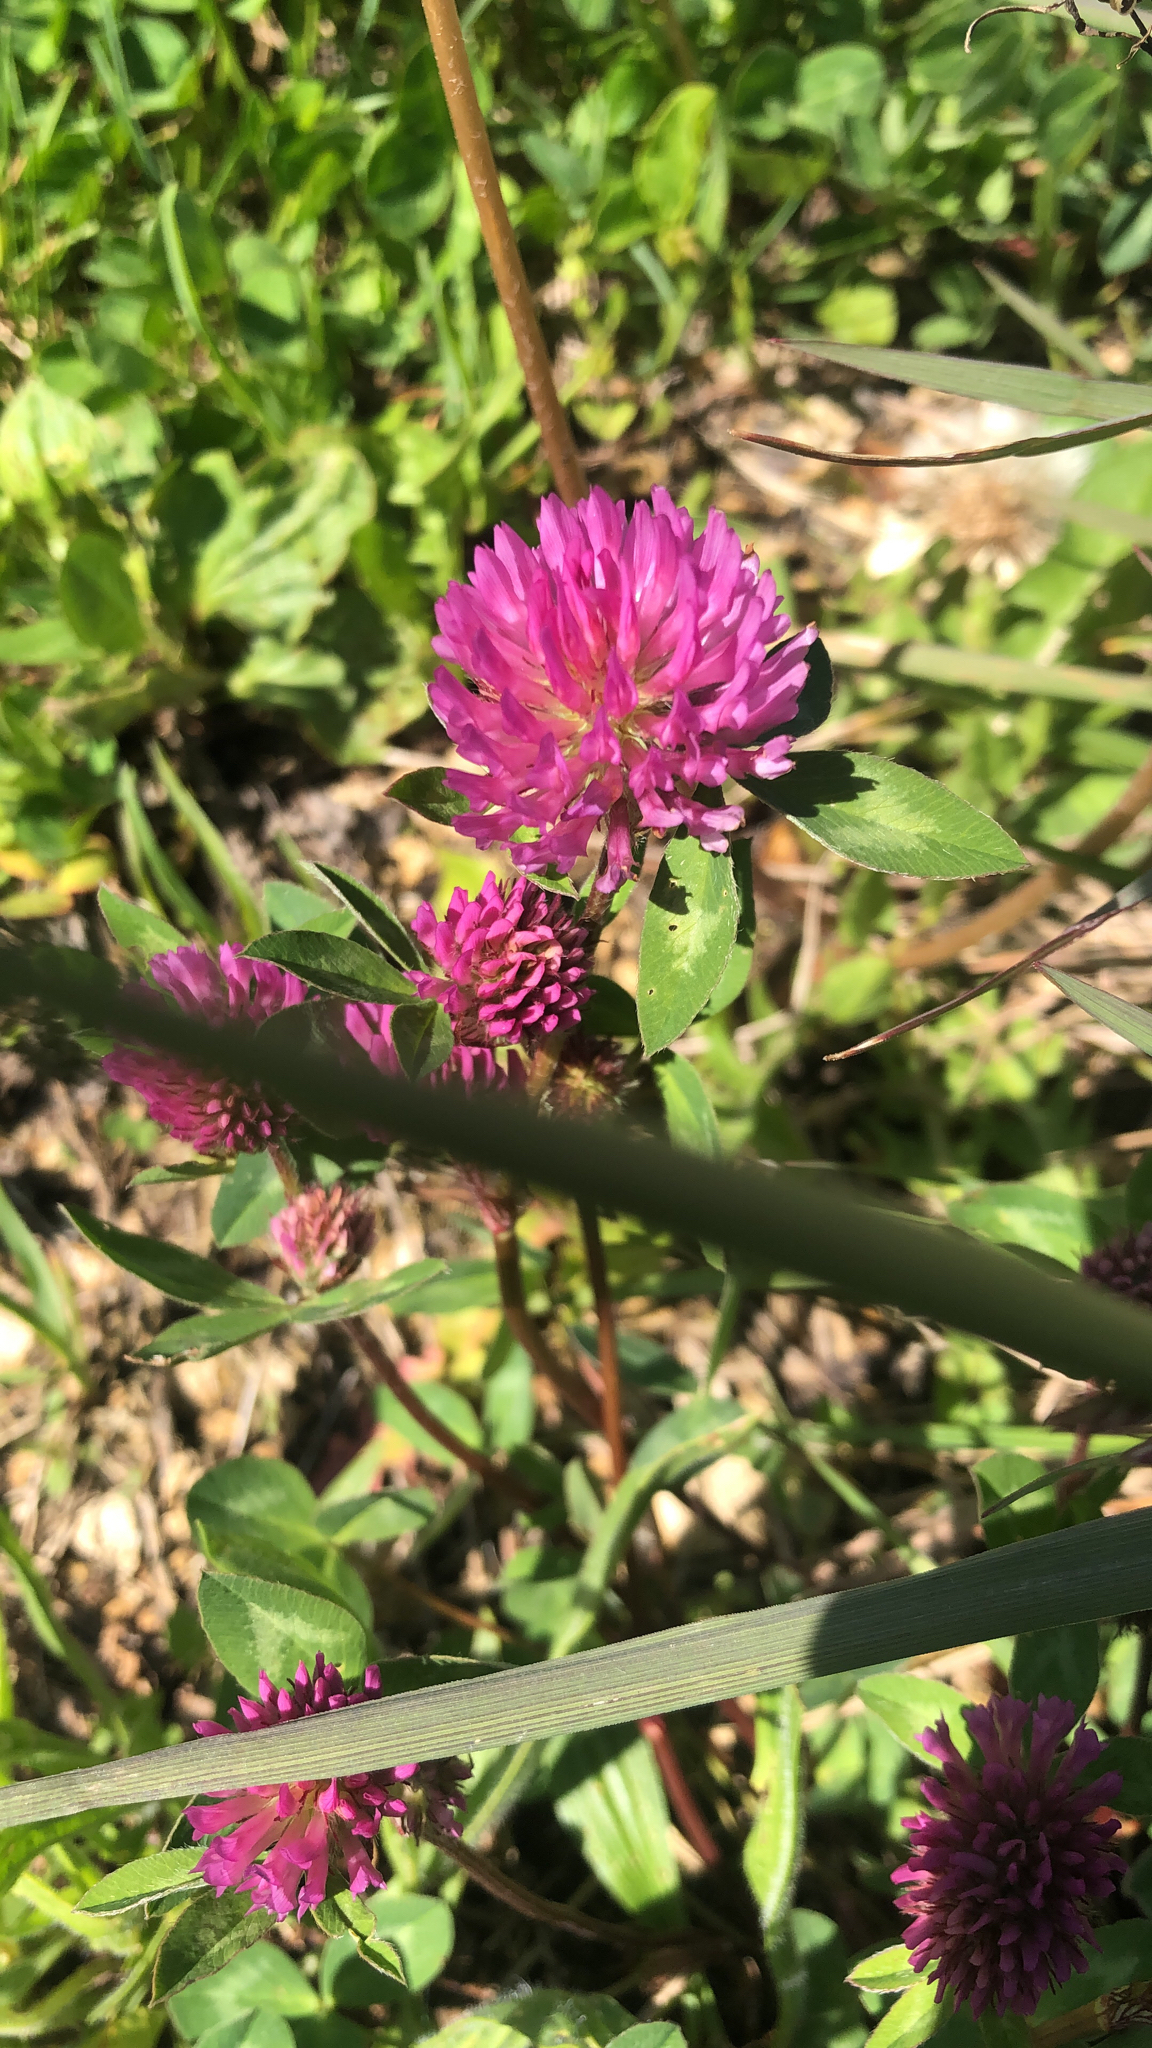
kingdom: Plantae
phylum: Tracheophyta
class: Magnoliopsida
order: Fabales
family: Fabaceae
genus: Trifolium
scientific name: Trifolium pratense
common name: Red clover
